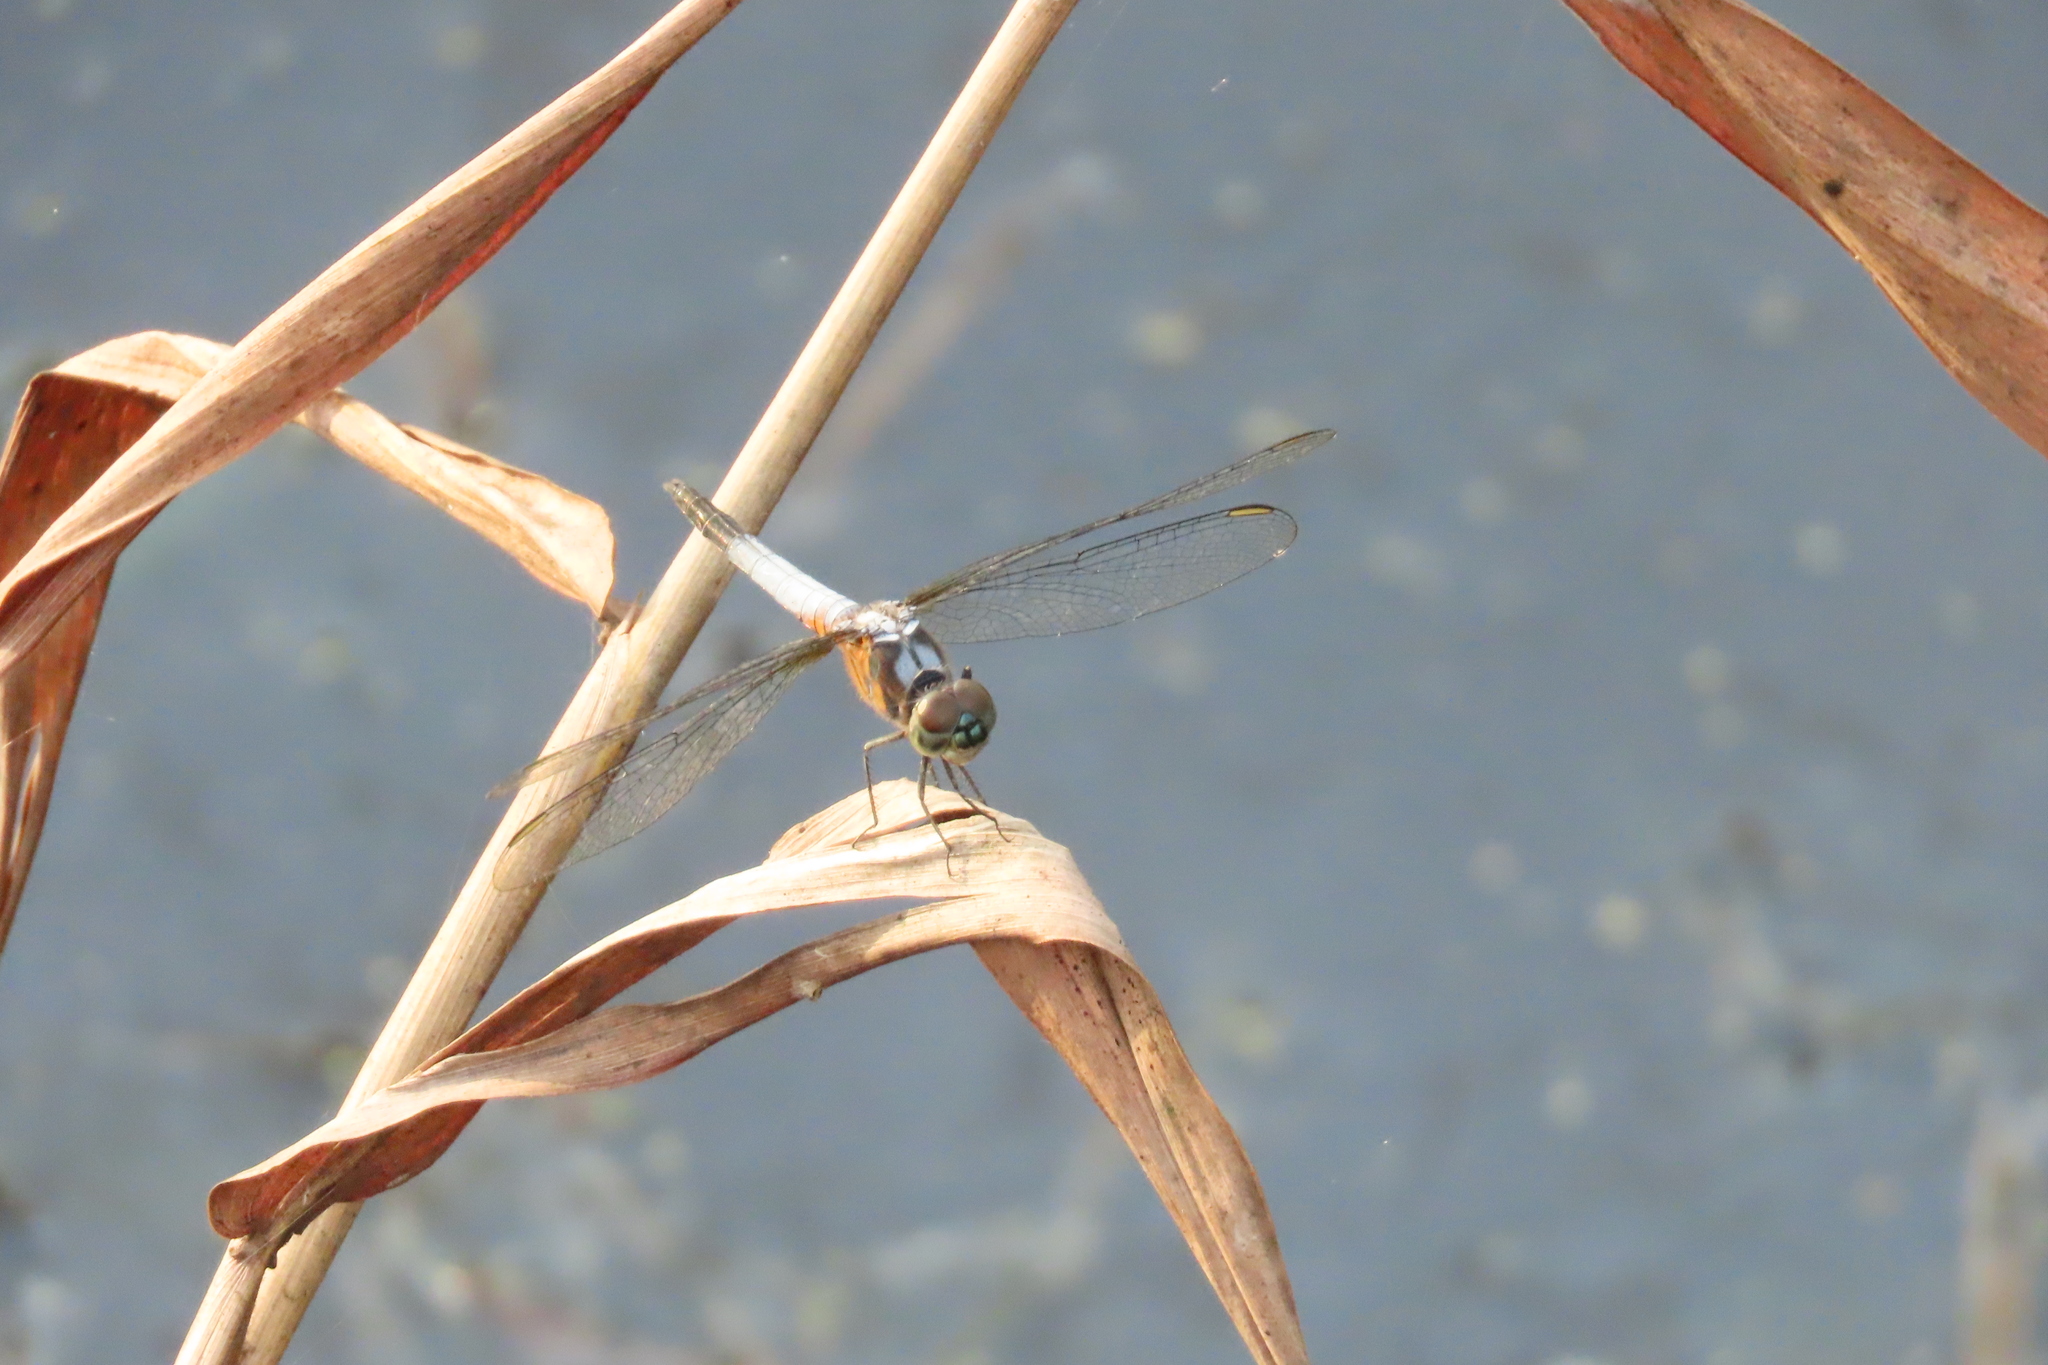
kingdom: Animalia
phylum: Arthropoda
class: Insecta
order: Odonata
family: Libellulidae
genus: Brachydiplax
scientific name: Brachydiplax chalybea
